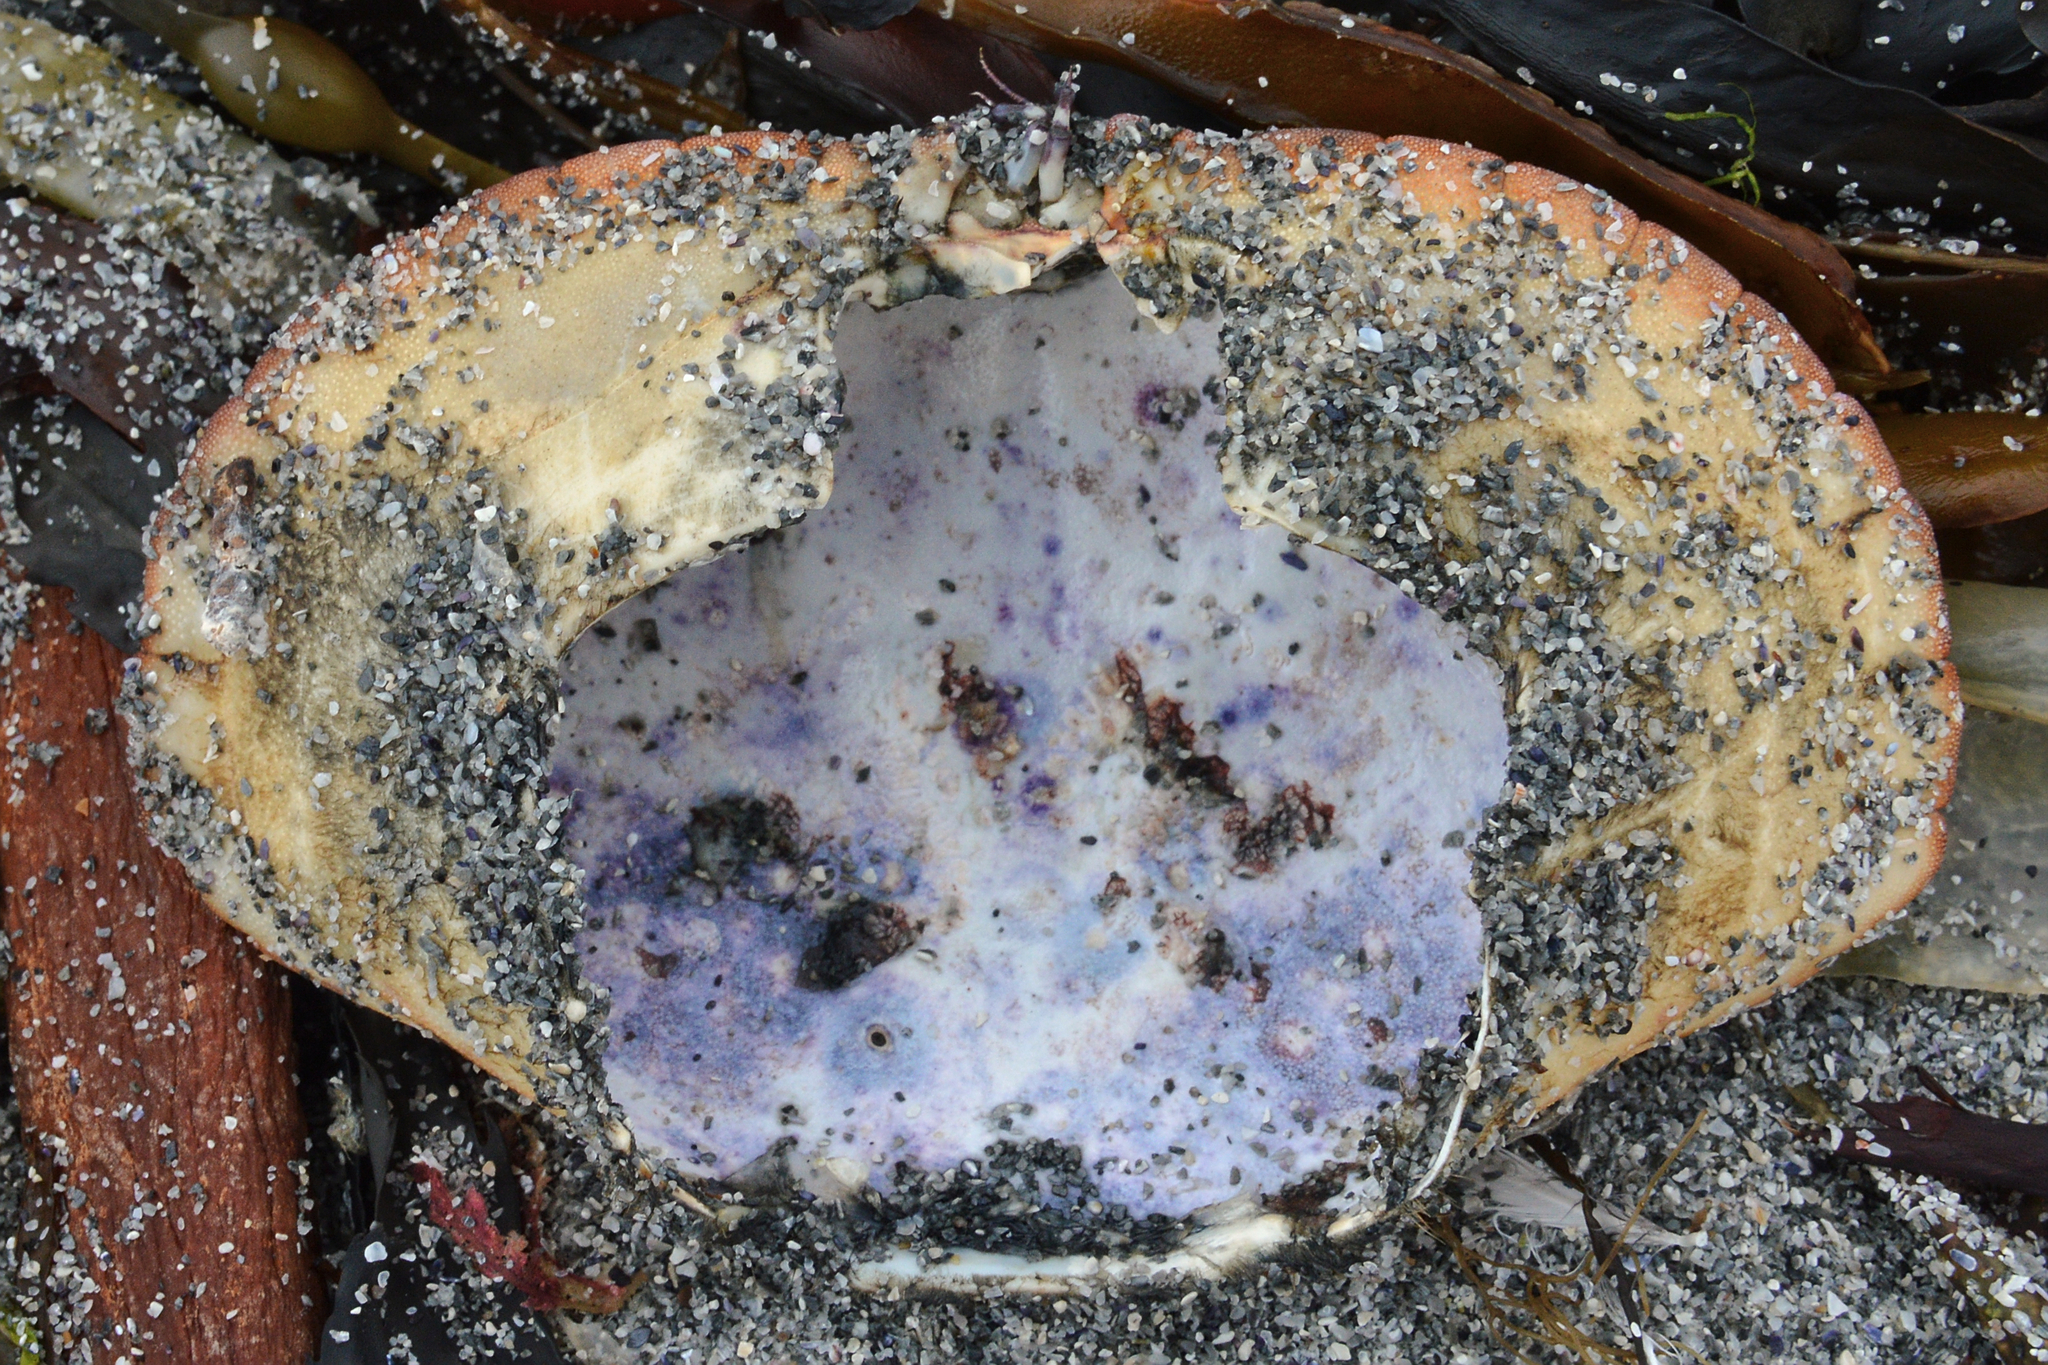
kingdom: Animalia
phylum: Arthropoda
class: Malacostraca
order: Decapoda
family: Cancridae
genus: Cancer
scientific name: Cancer pagurus
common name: Edible crab
